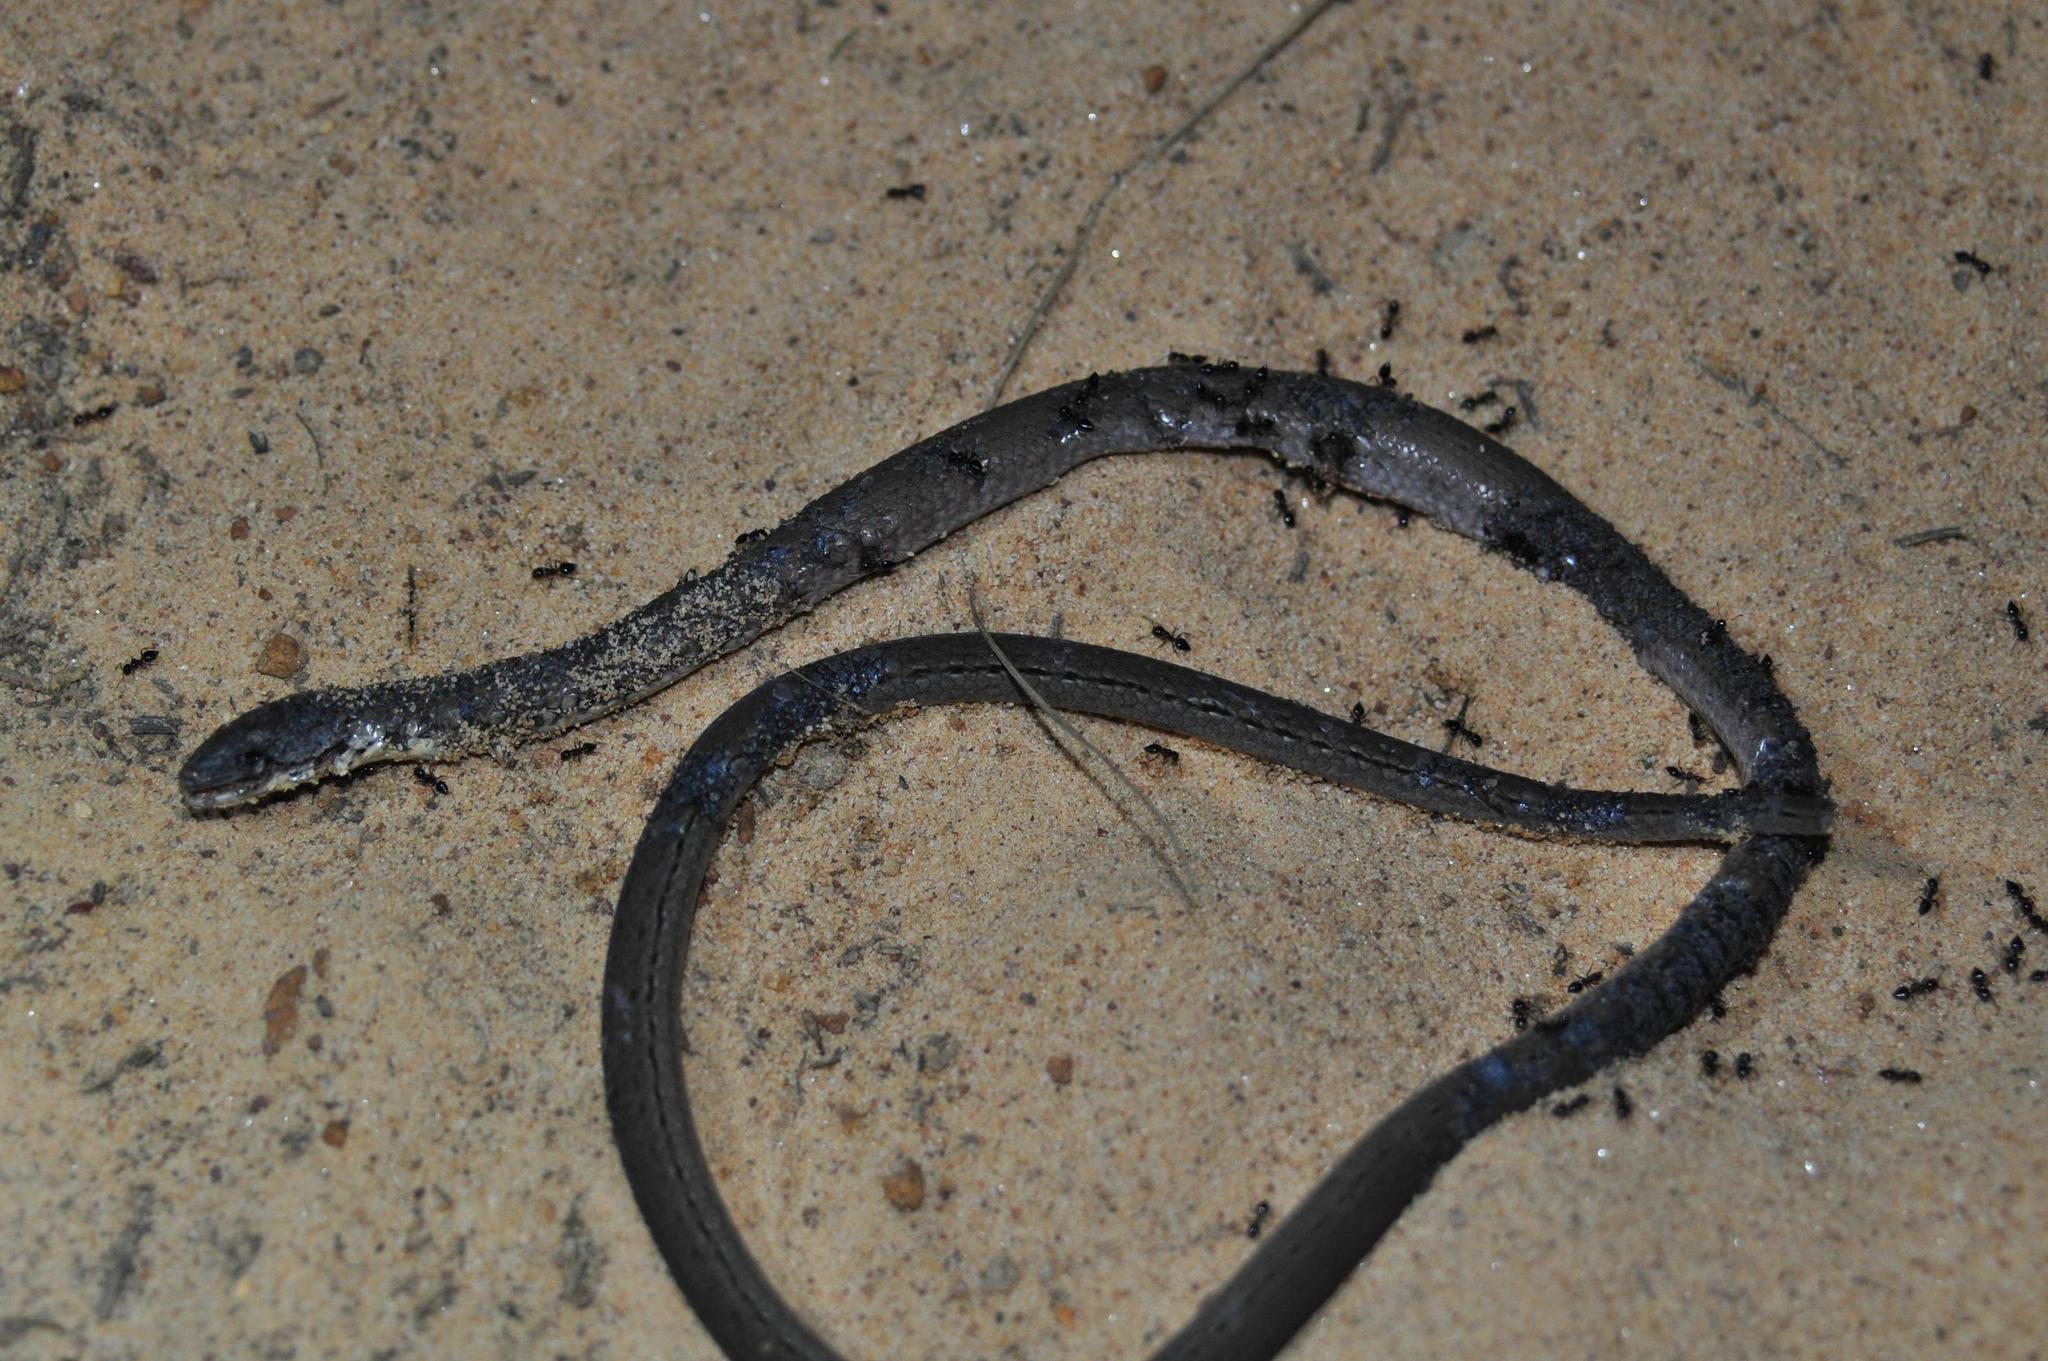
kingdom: Animalia
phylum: Chordata
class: Squamata
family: Pygopodidae
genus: Pygopus
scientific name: Pygopus lepidopodus
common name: Southern scaly-foot
